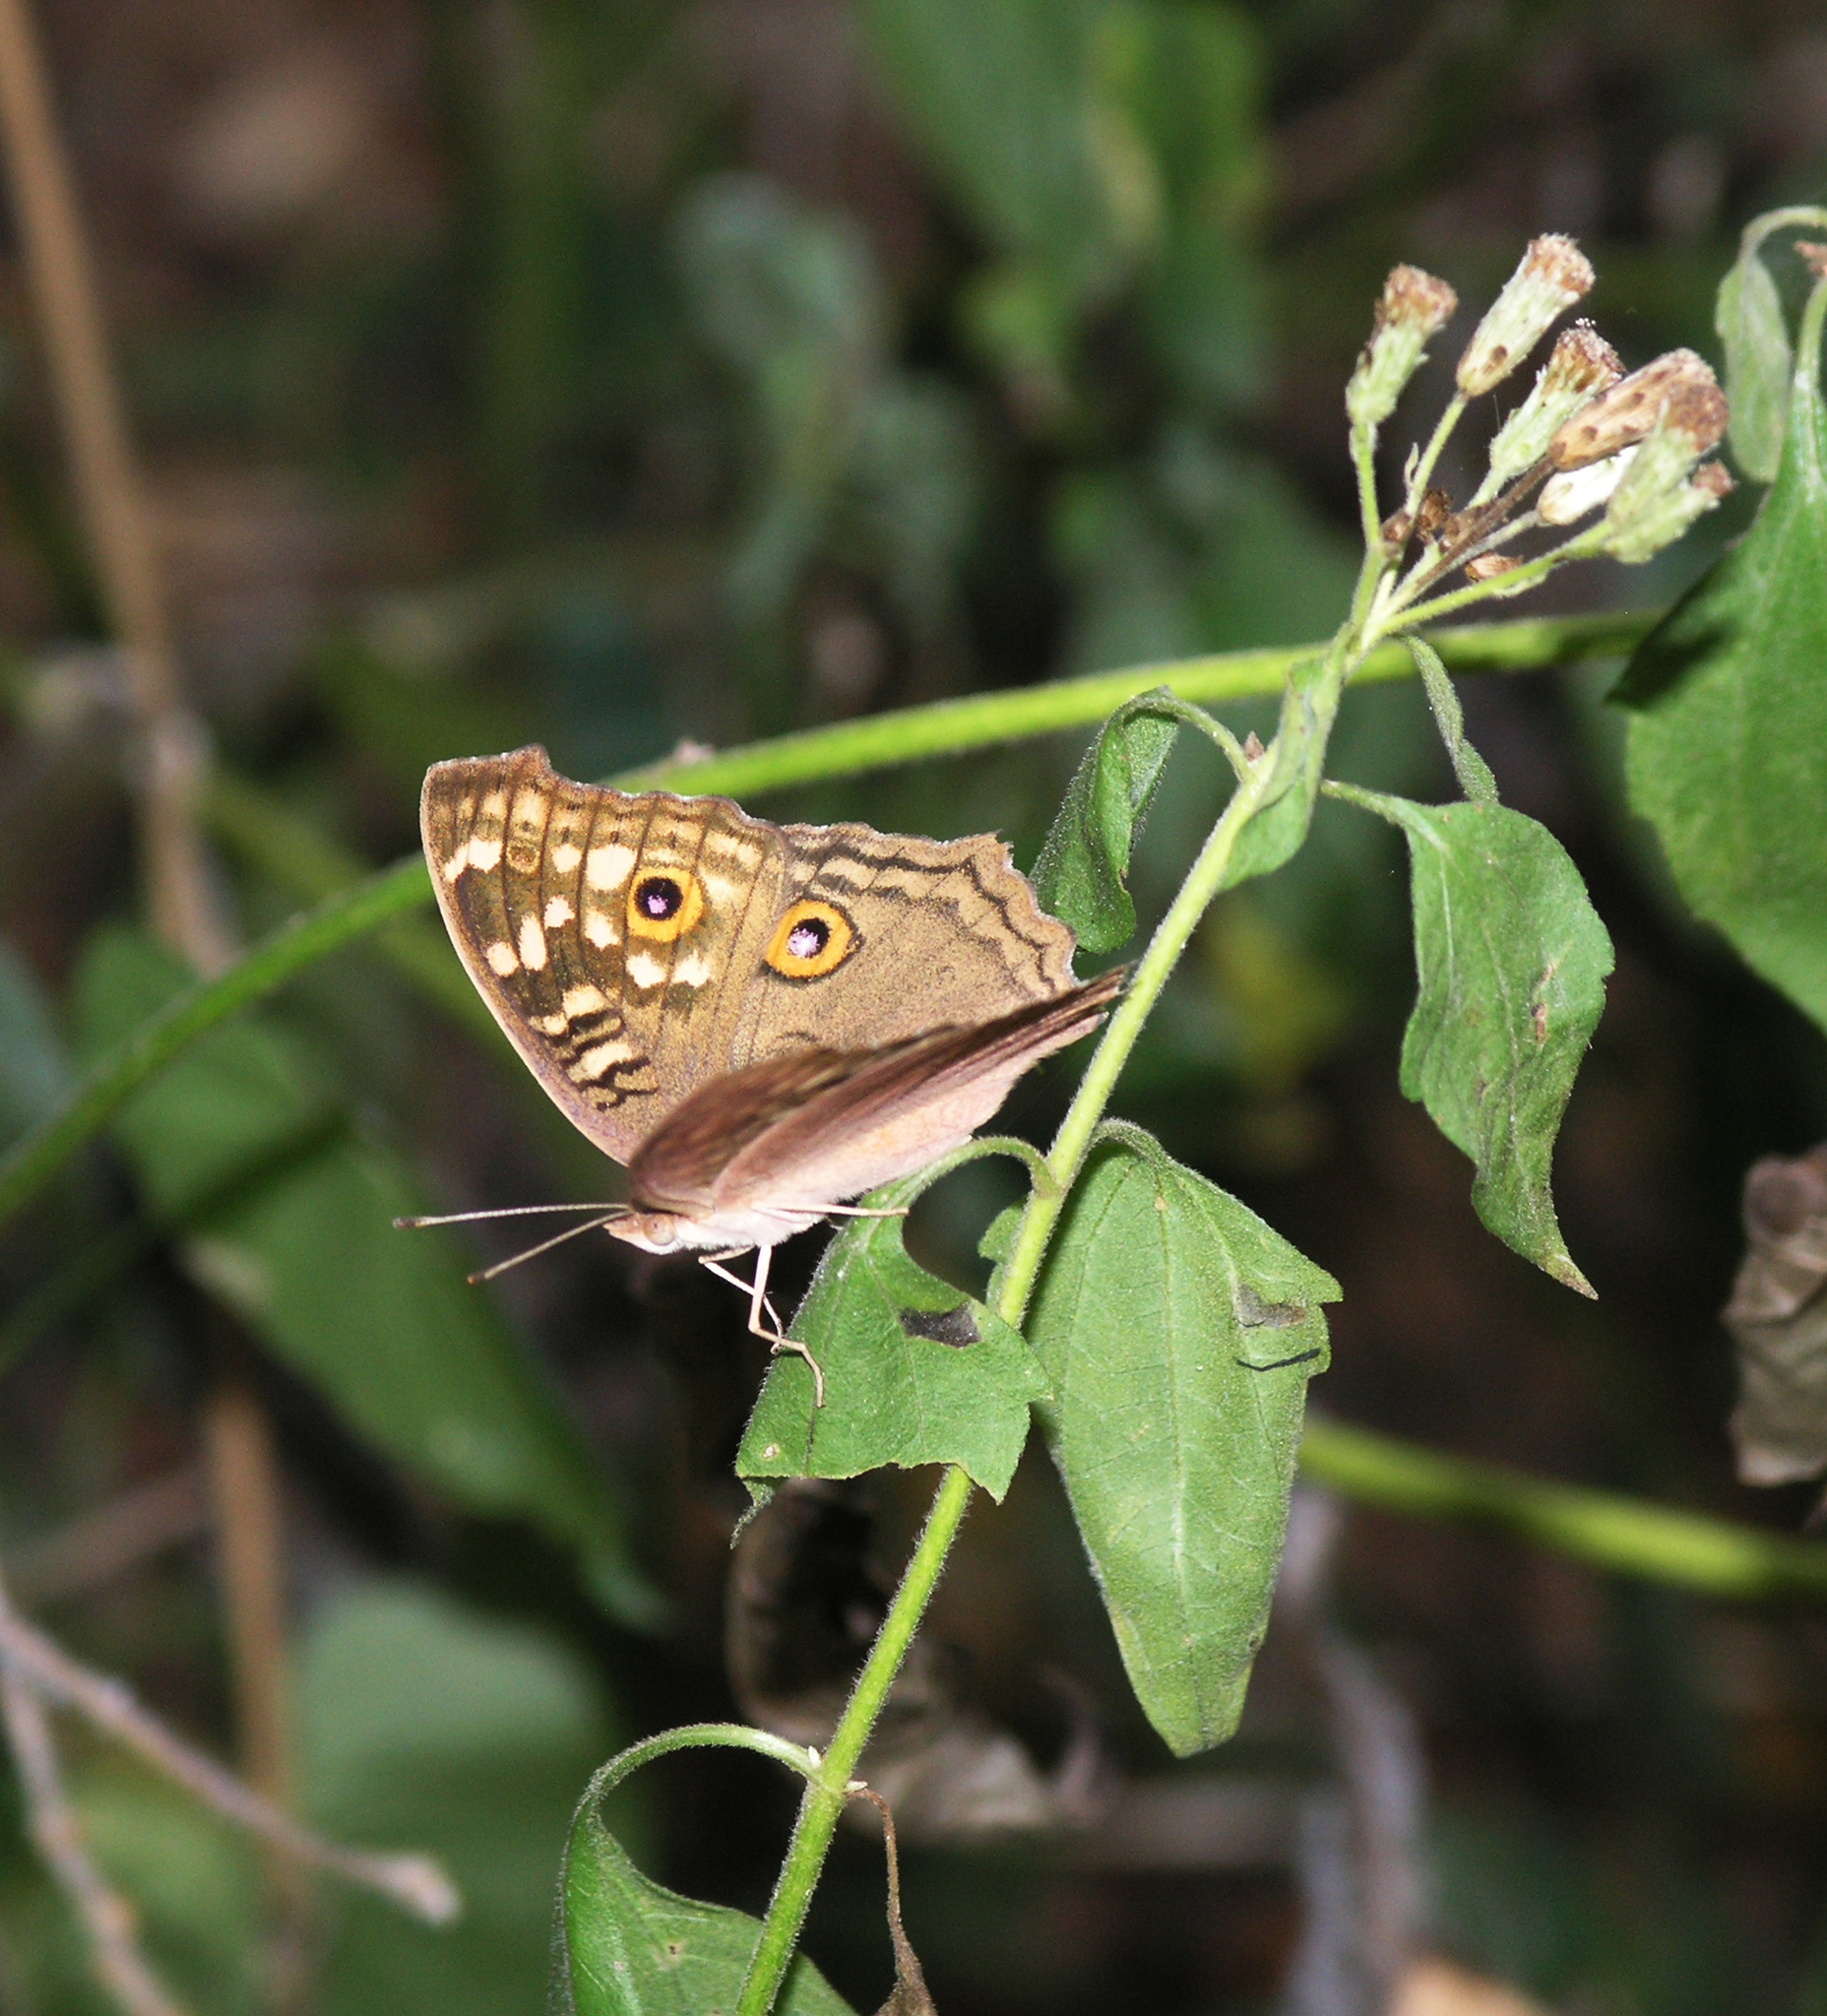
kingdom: Animalia
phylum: Arthropoda
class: Insecta
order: Lepidoptera
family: Nymphalidae
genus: Junonia
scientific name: Junonia lemonias
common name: Lemon pansy
